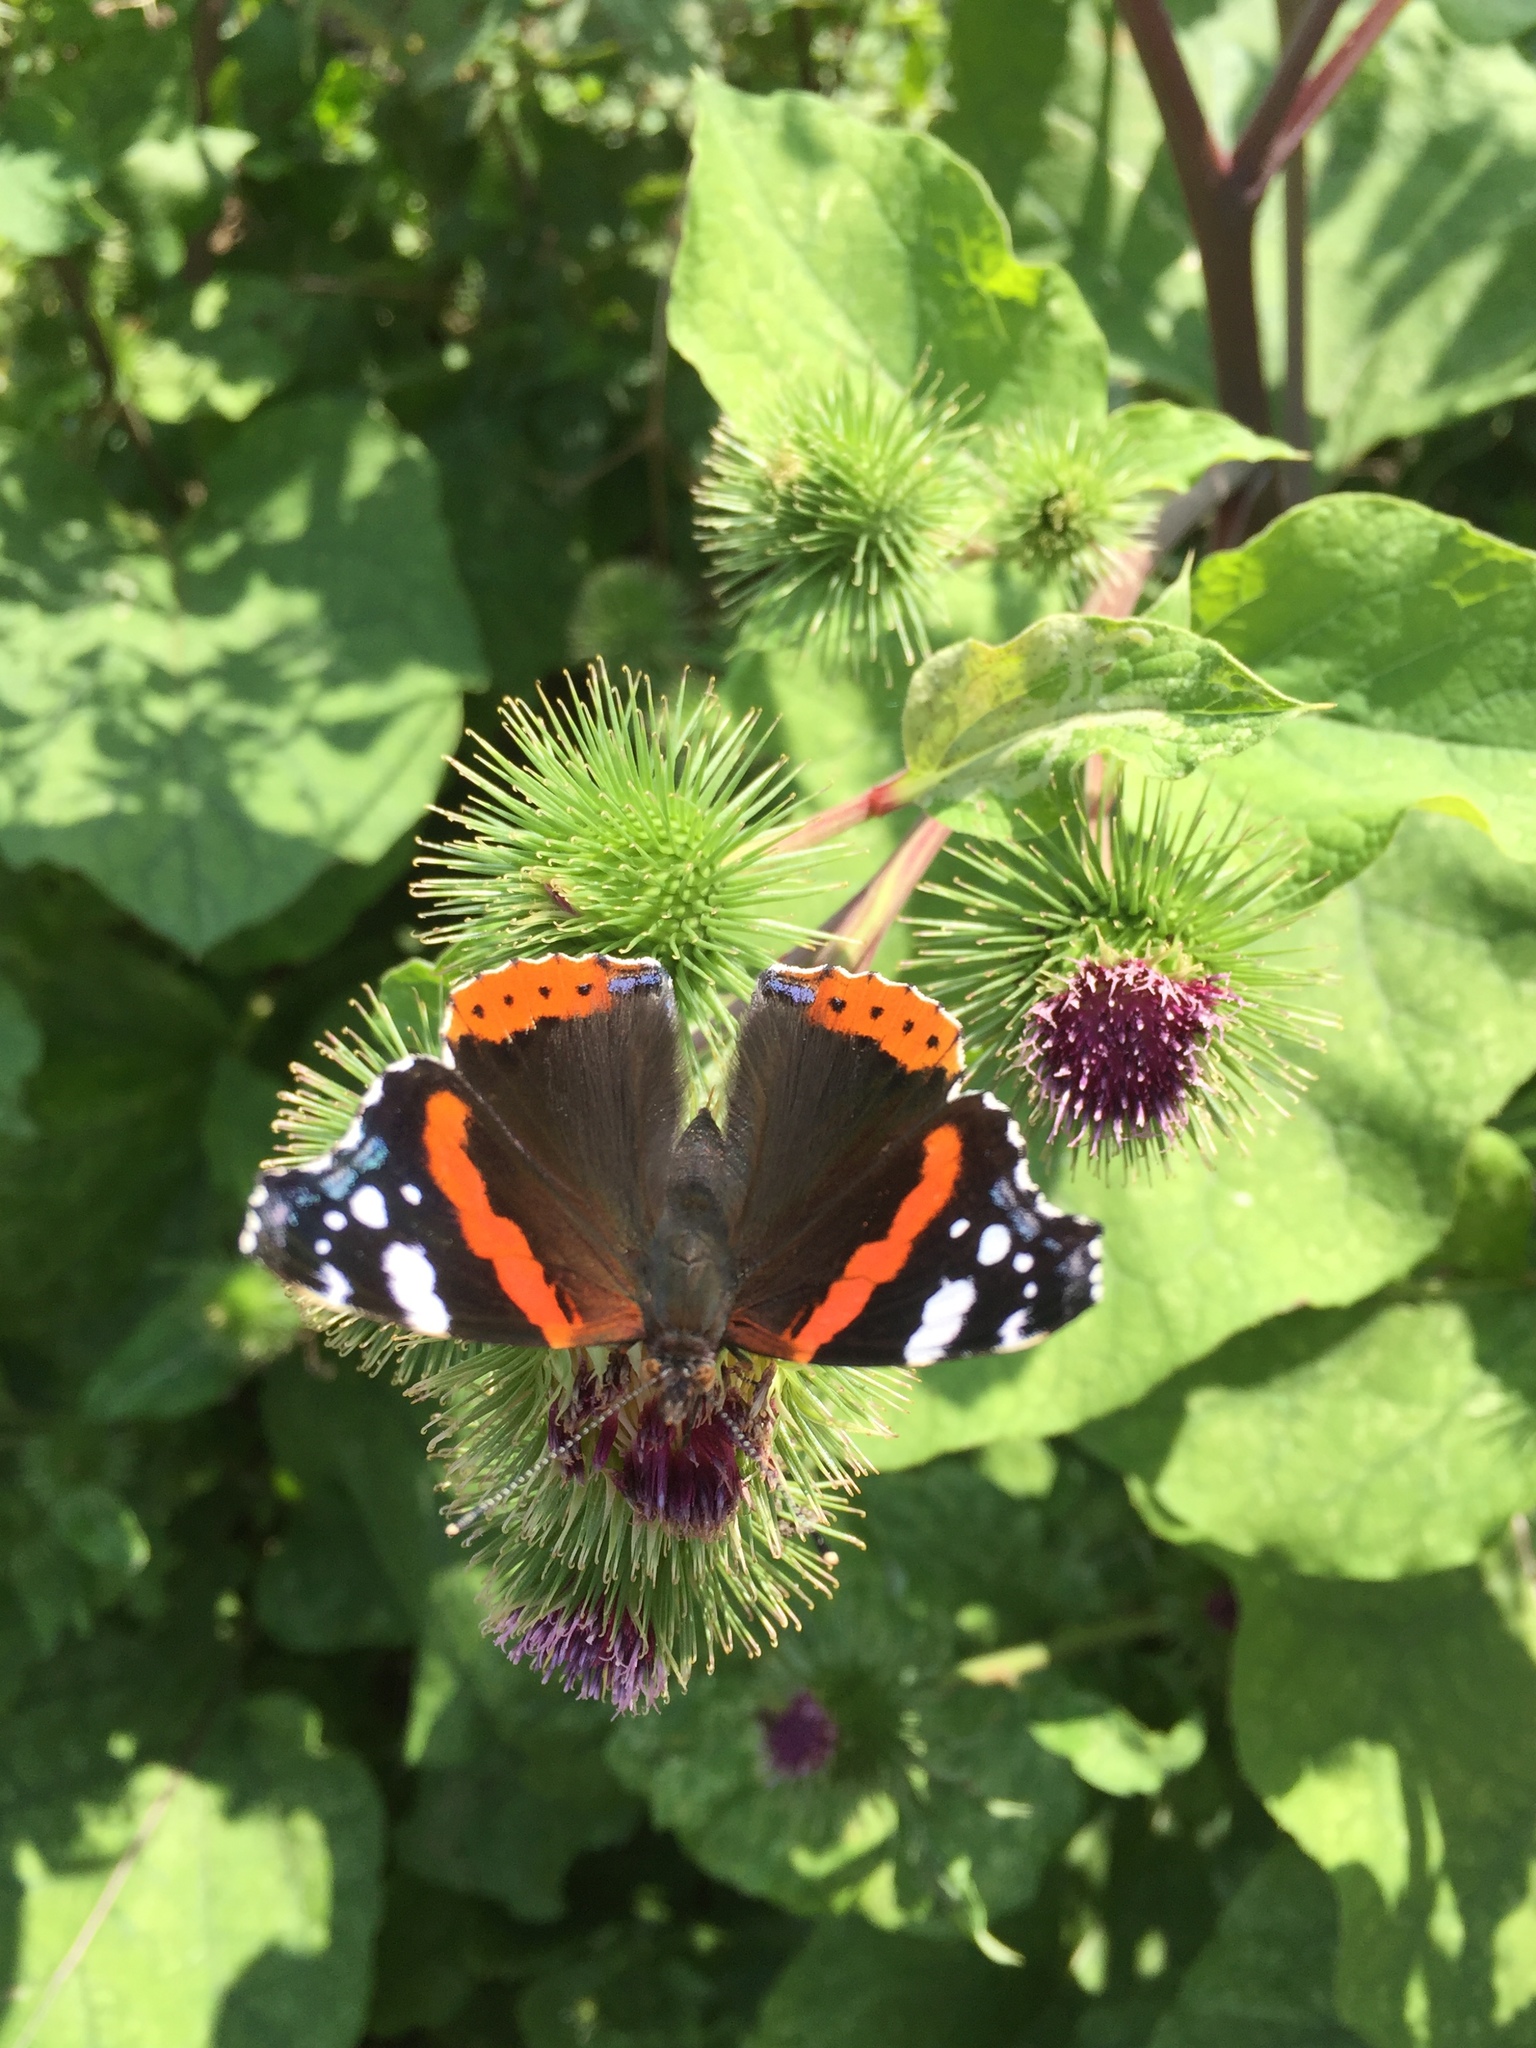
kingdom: Animalia
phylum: Arthropoda
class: Insecta
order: Lepidoptera
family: Nymphalidae
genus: Vanessa
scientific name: Vanessa atalanta
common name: Red admiral
